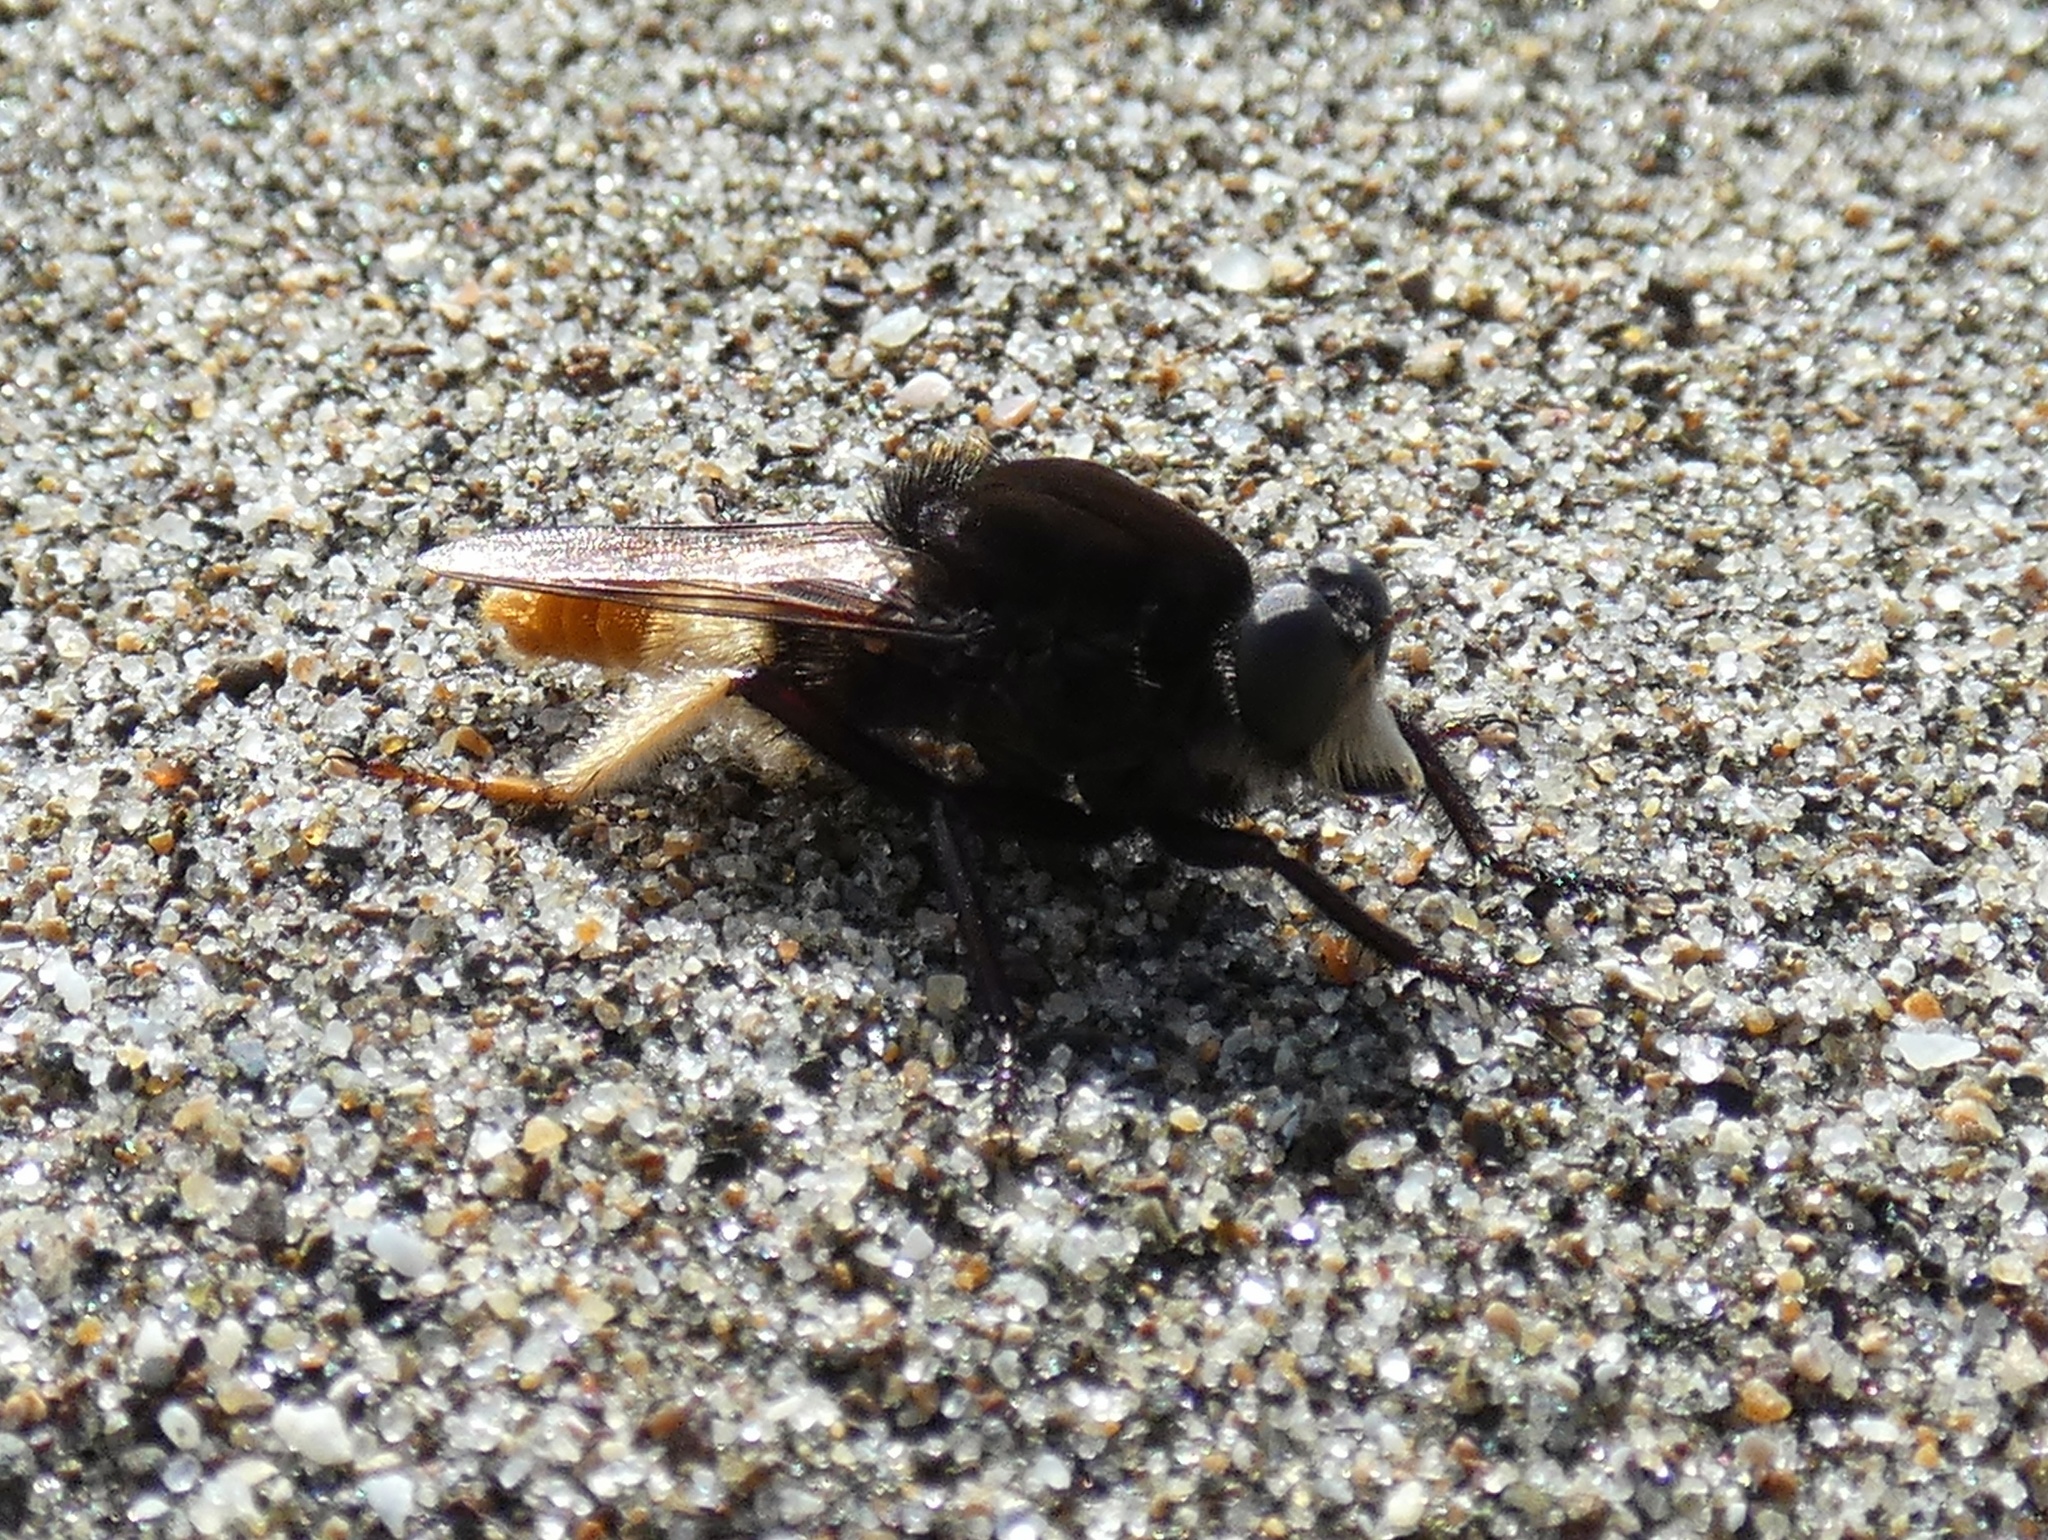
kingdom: Animalia
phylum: Arthropoda
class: Insecta
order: Diptera
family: Asilidae
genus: Eccritosia
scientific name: Eccritosia zamon
